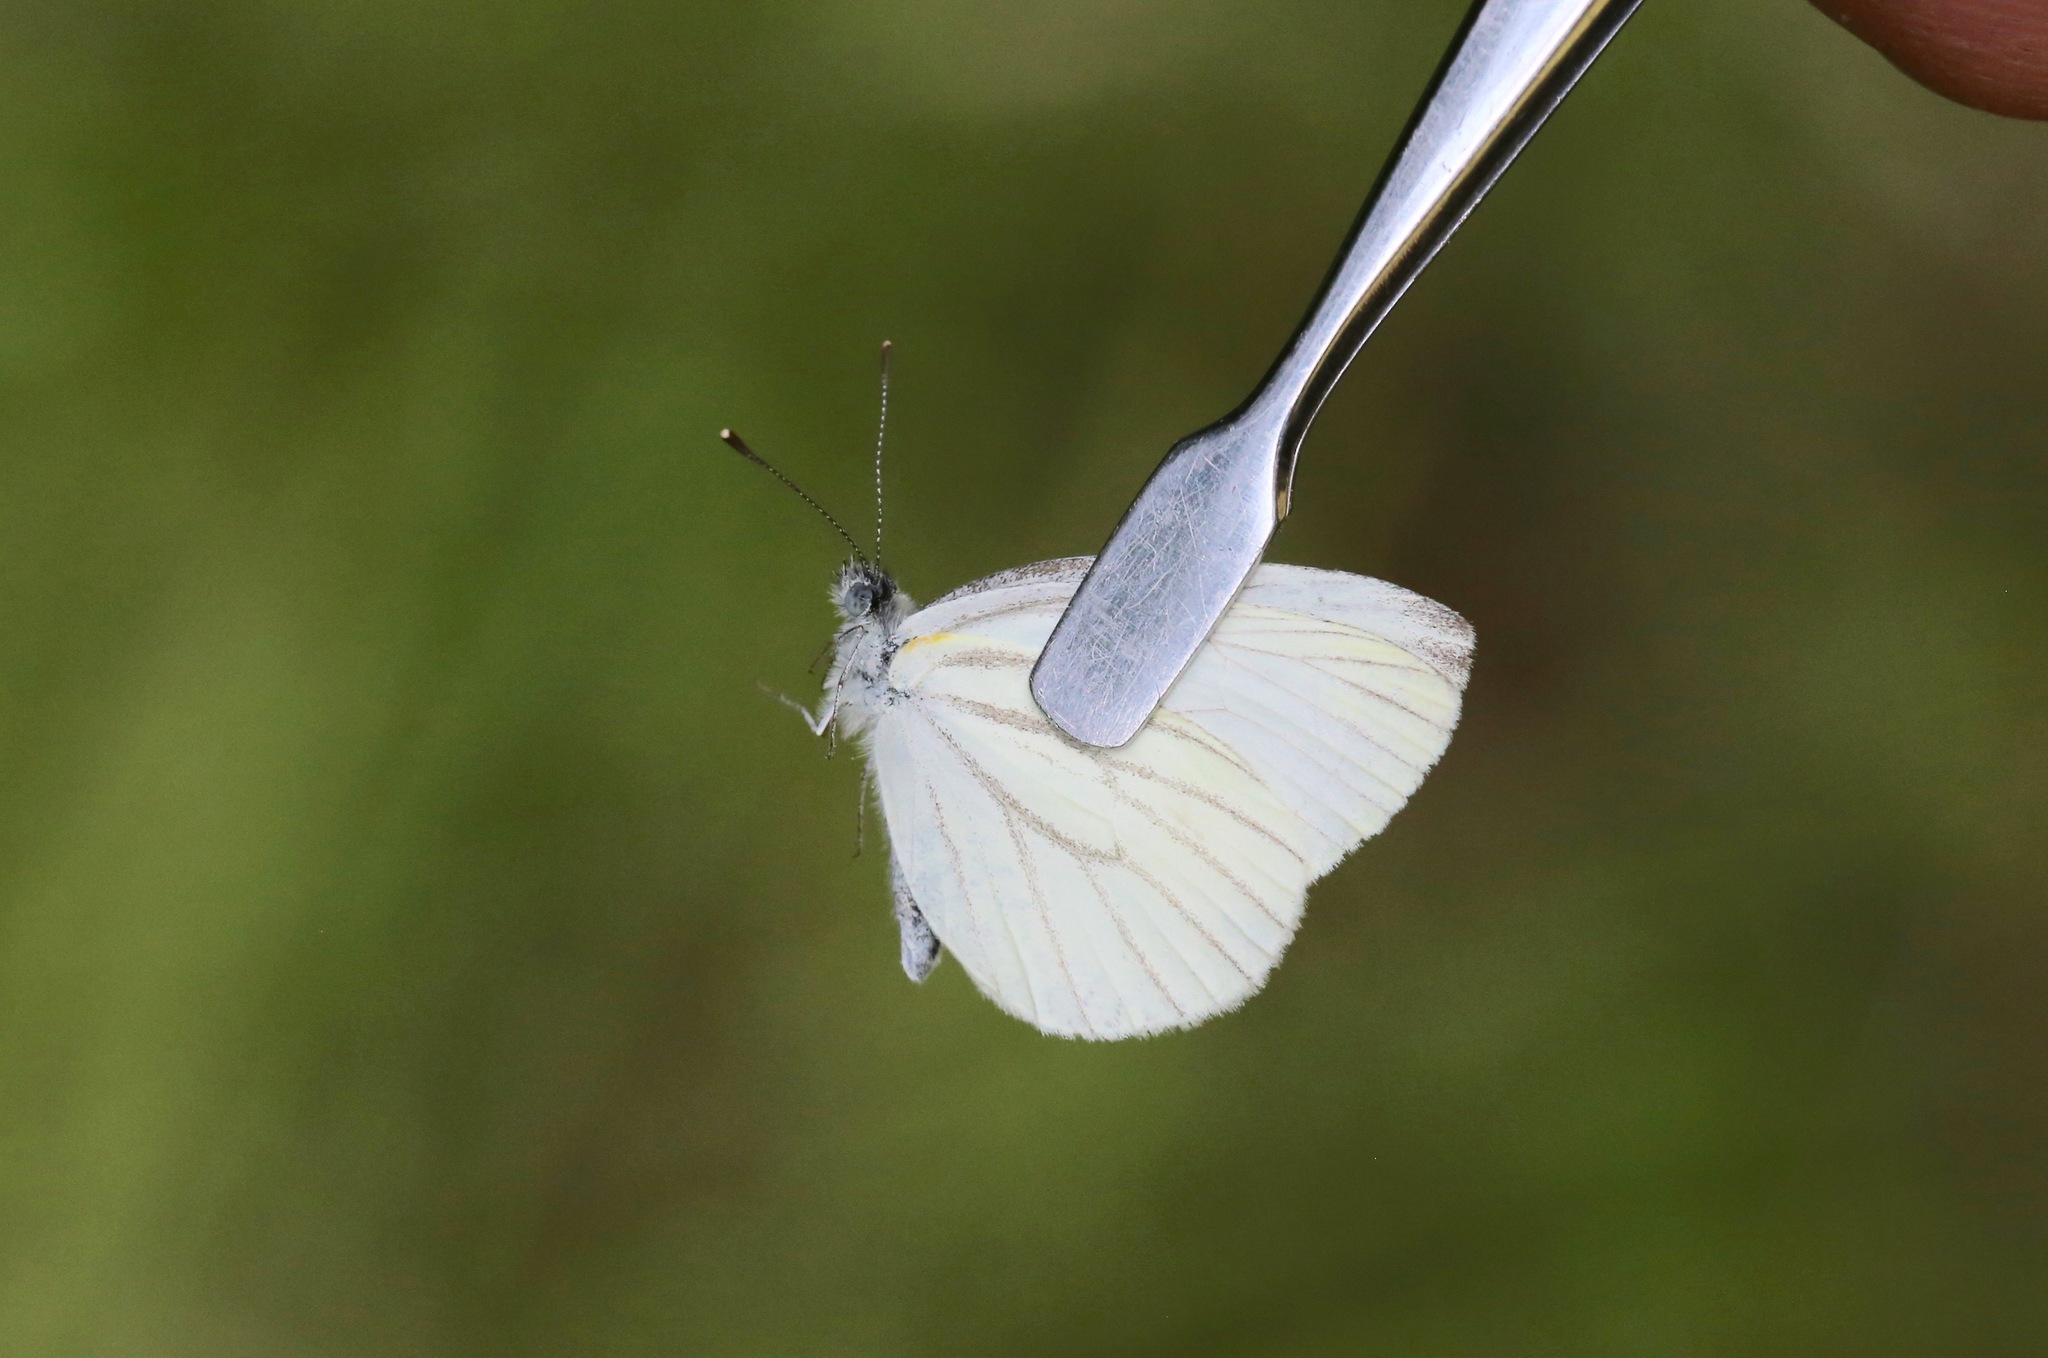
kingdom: Animalia
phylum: Arthropoda
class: Insecta
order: Lepidoptera
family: Pieridae
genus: Pieris
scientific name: Pieris oleracea
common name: Mustard white
